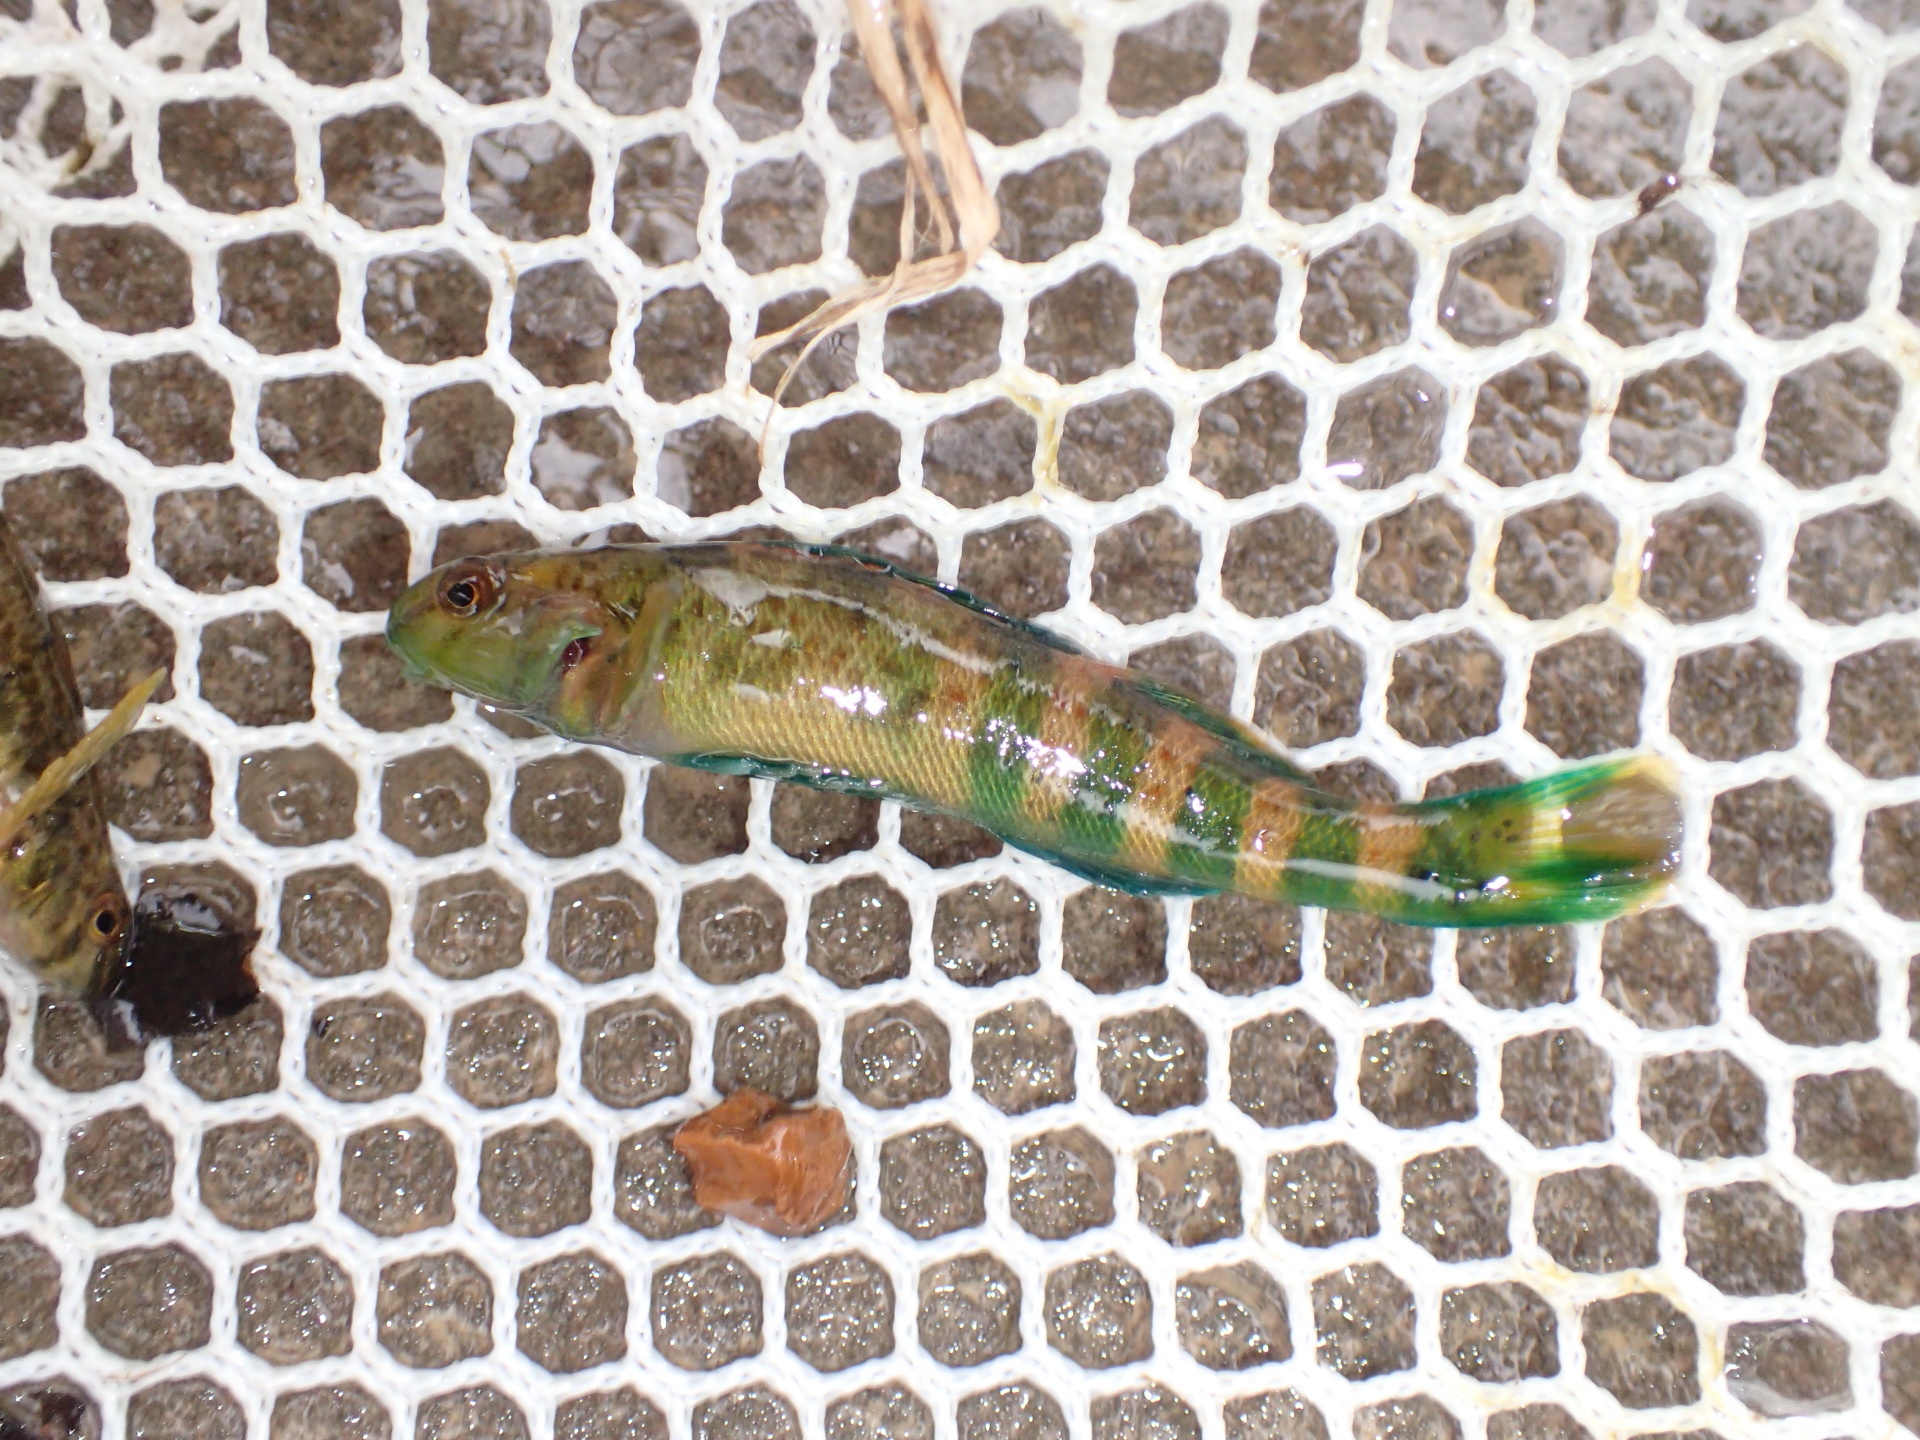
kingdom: Animalia
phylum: Chordata
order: Perciformes
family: Percidae
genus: Etheostoma
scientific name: Etheostoma blennioides
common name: Greenside darter
